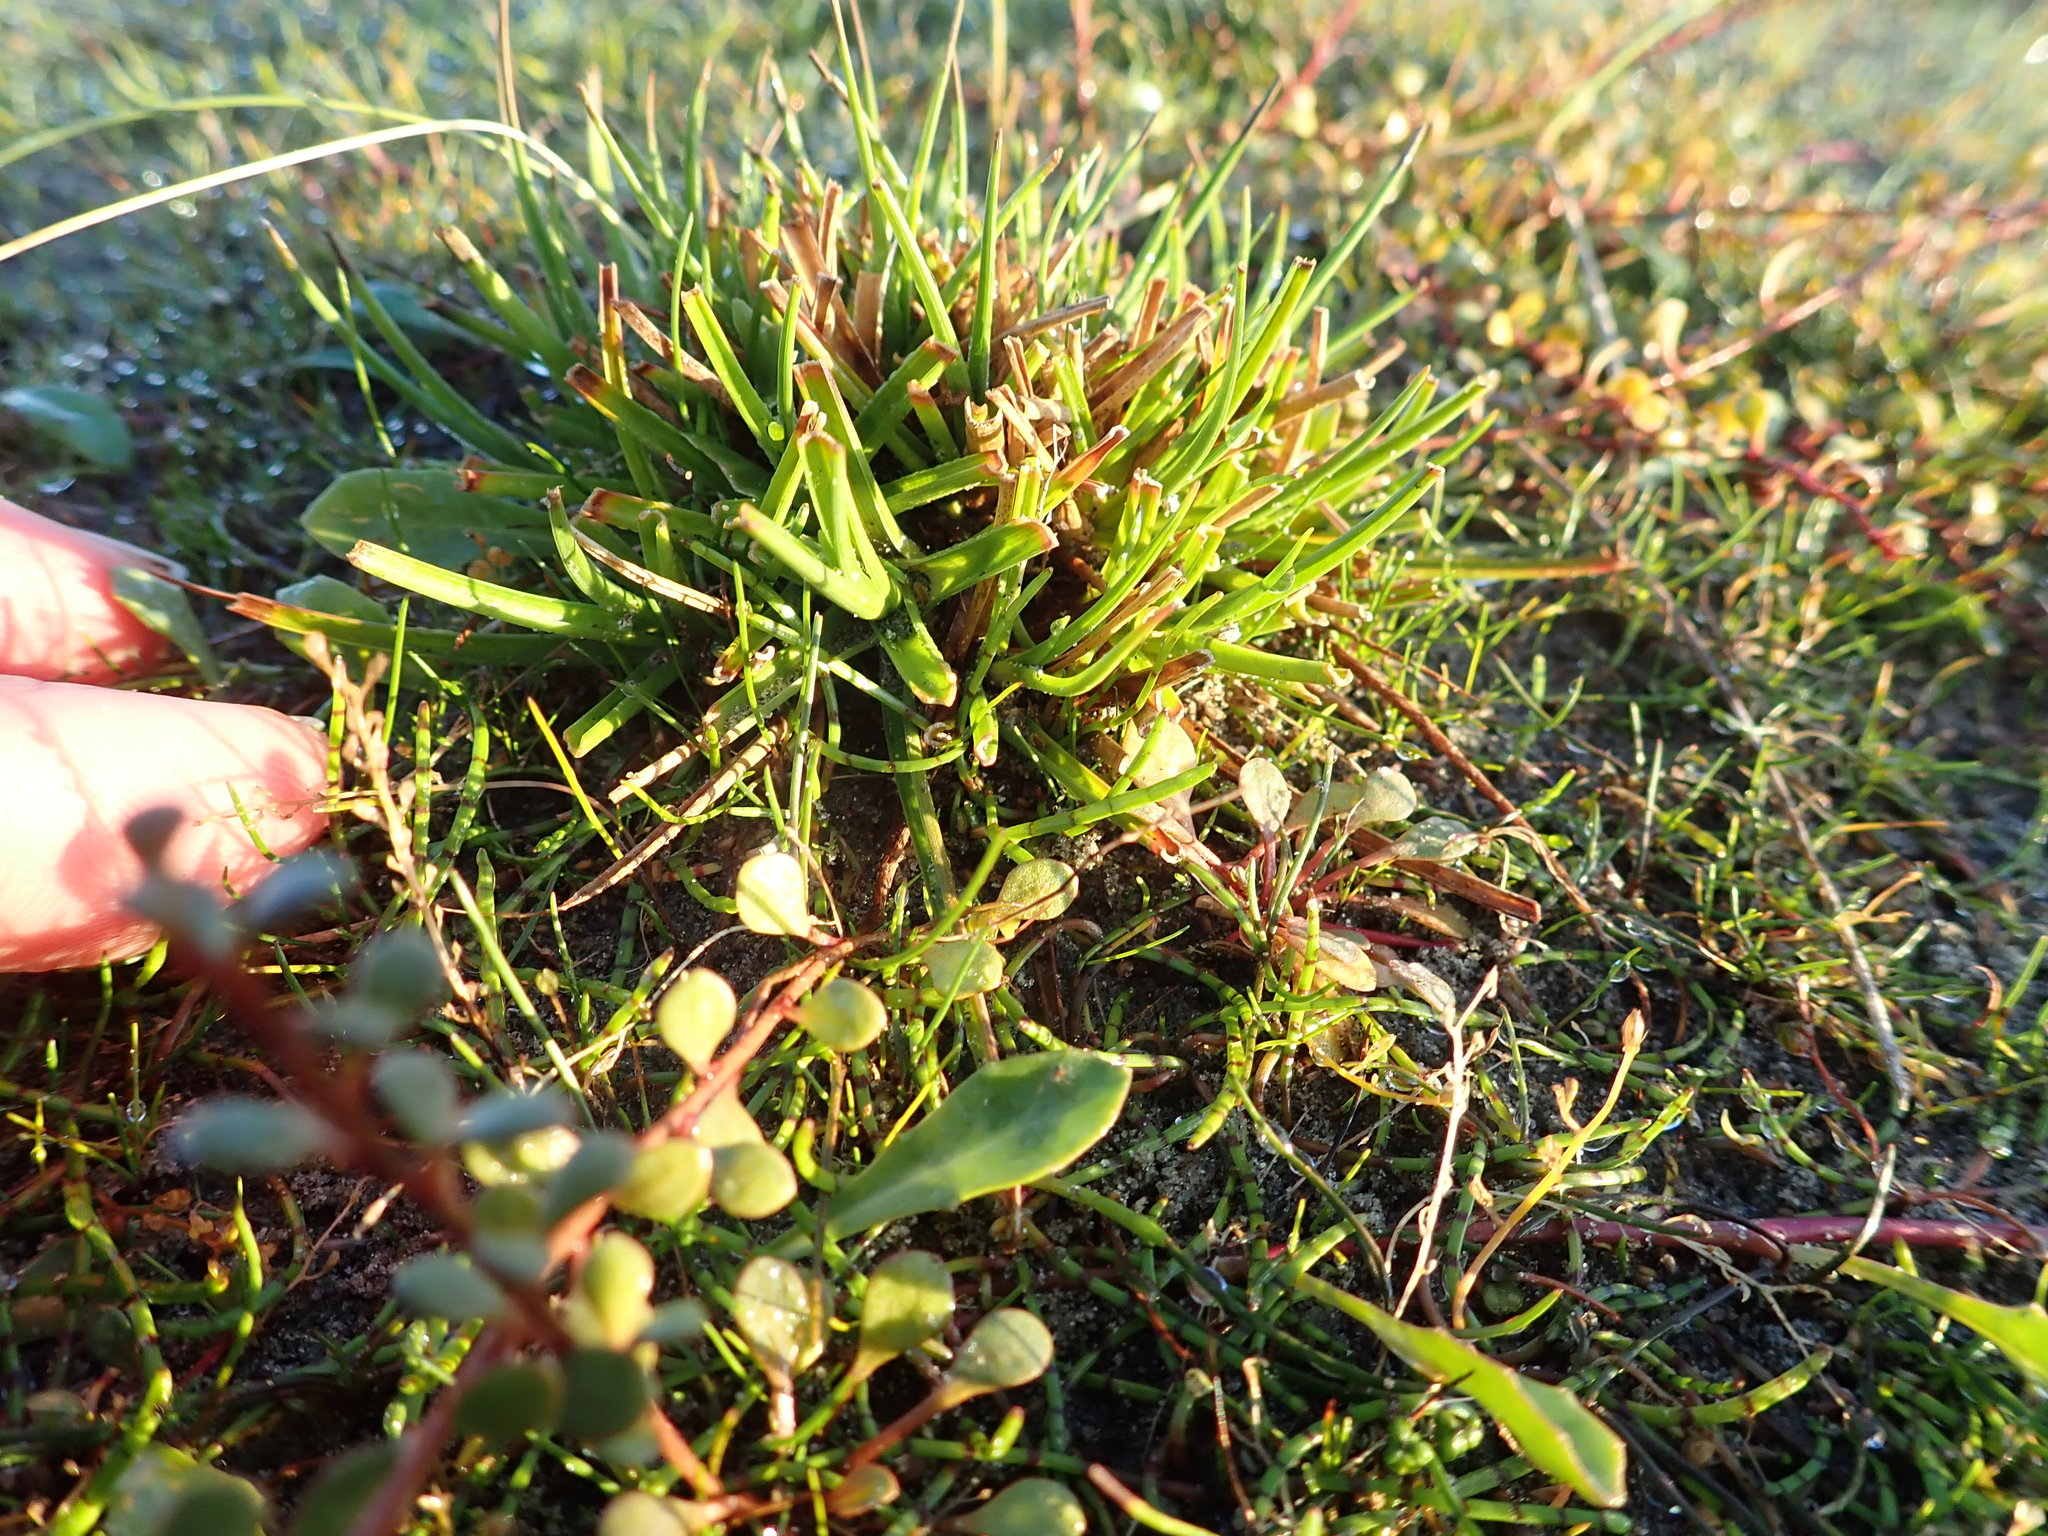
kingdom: Plantae
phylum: Tracheophyta
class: Liliopsida
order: Poales
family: Juncaceae
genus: Juncus
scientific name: Juncus caespiticius
